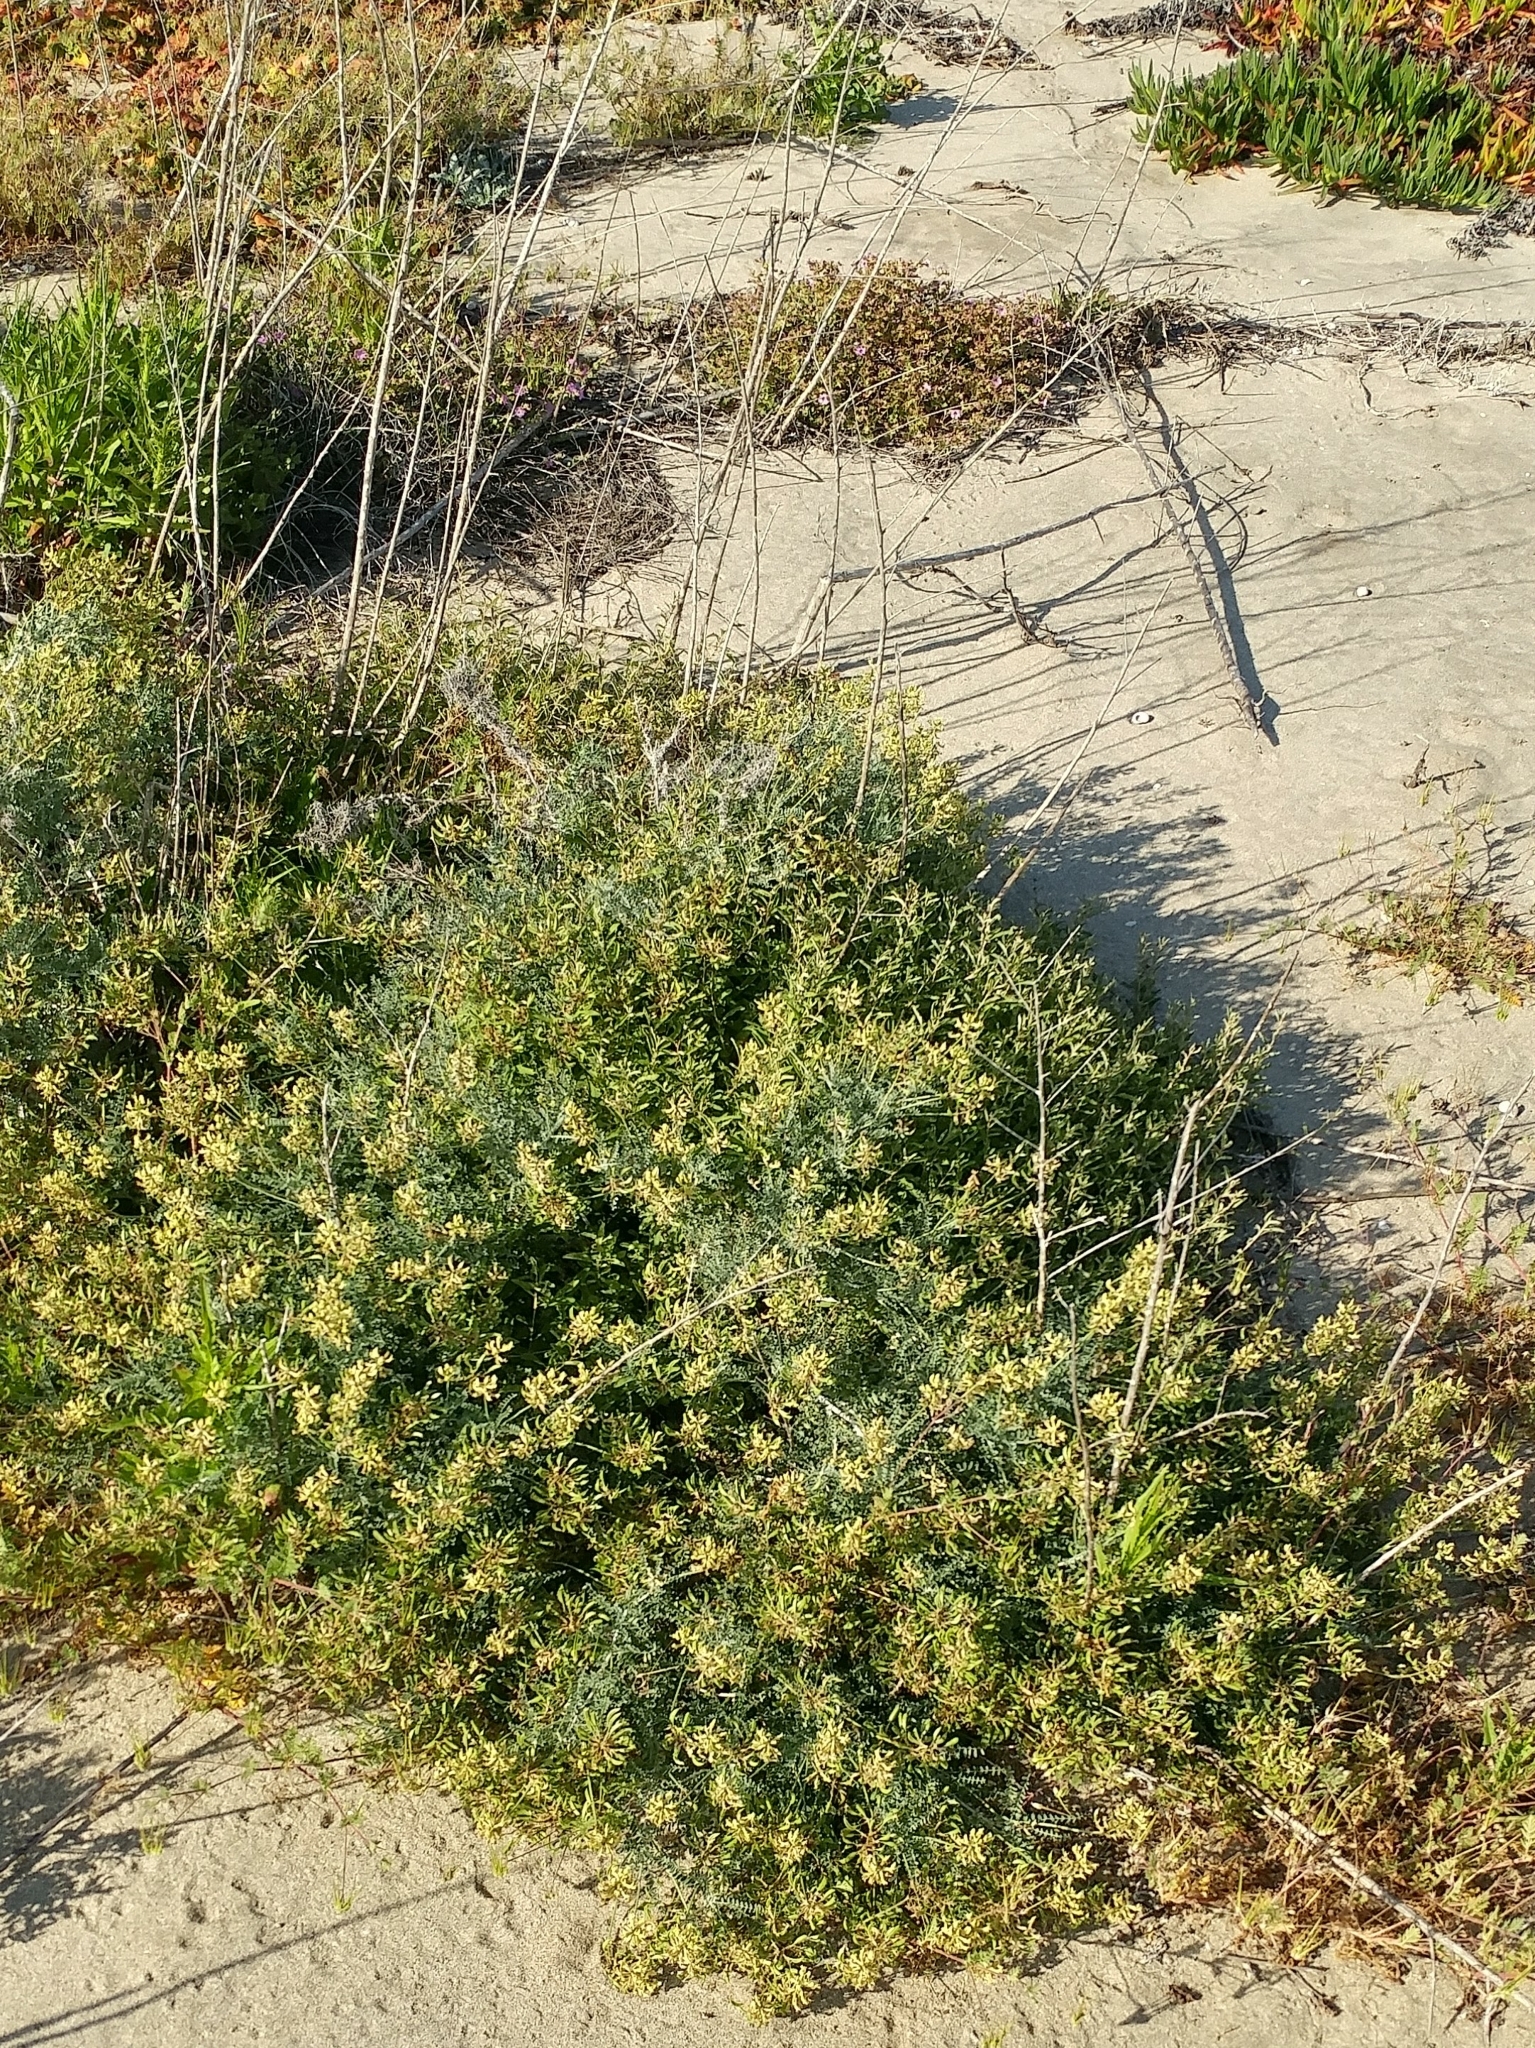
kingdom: Plantae
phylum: Tracheophyta
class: Magnoliopsida
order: Fabales
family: Fabaceae
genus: Astragalus
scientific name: Astragalus nevinii
